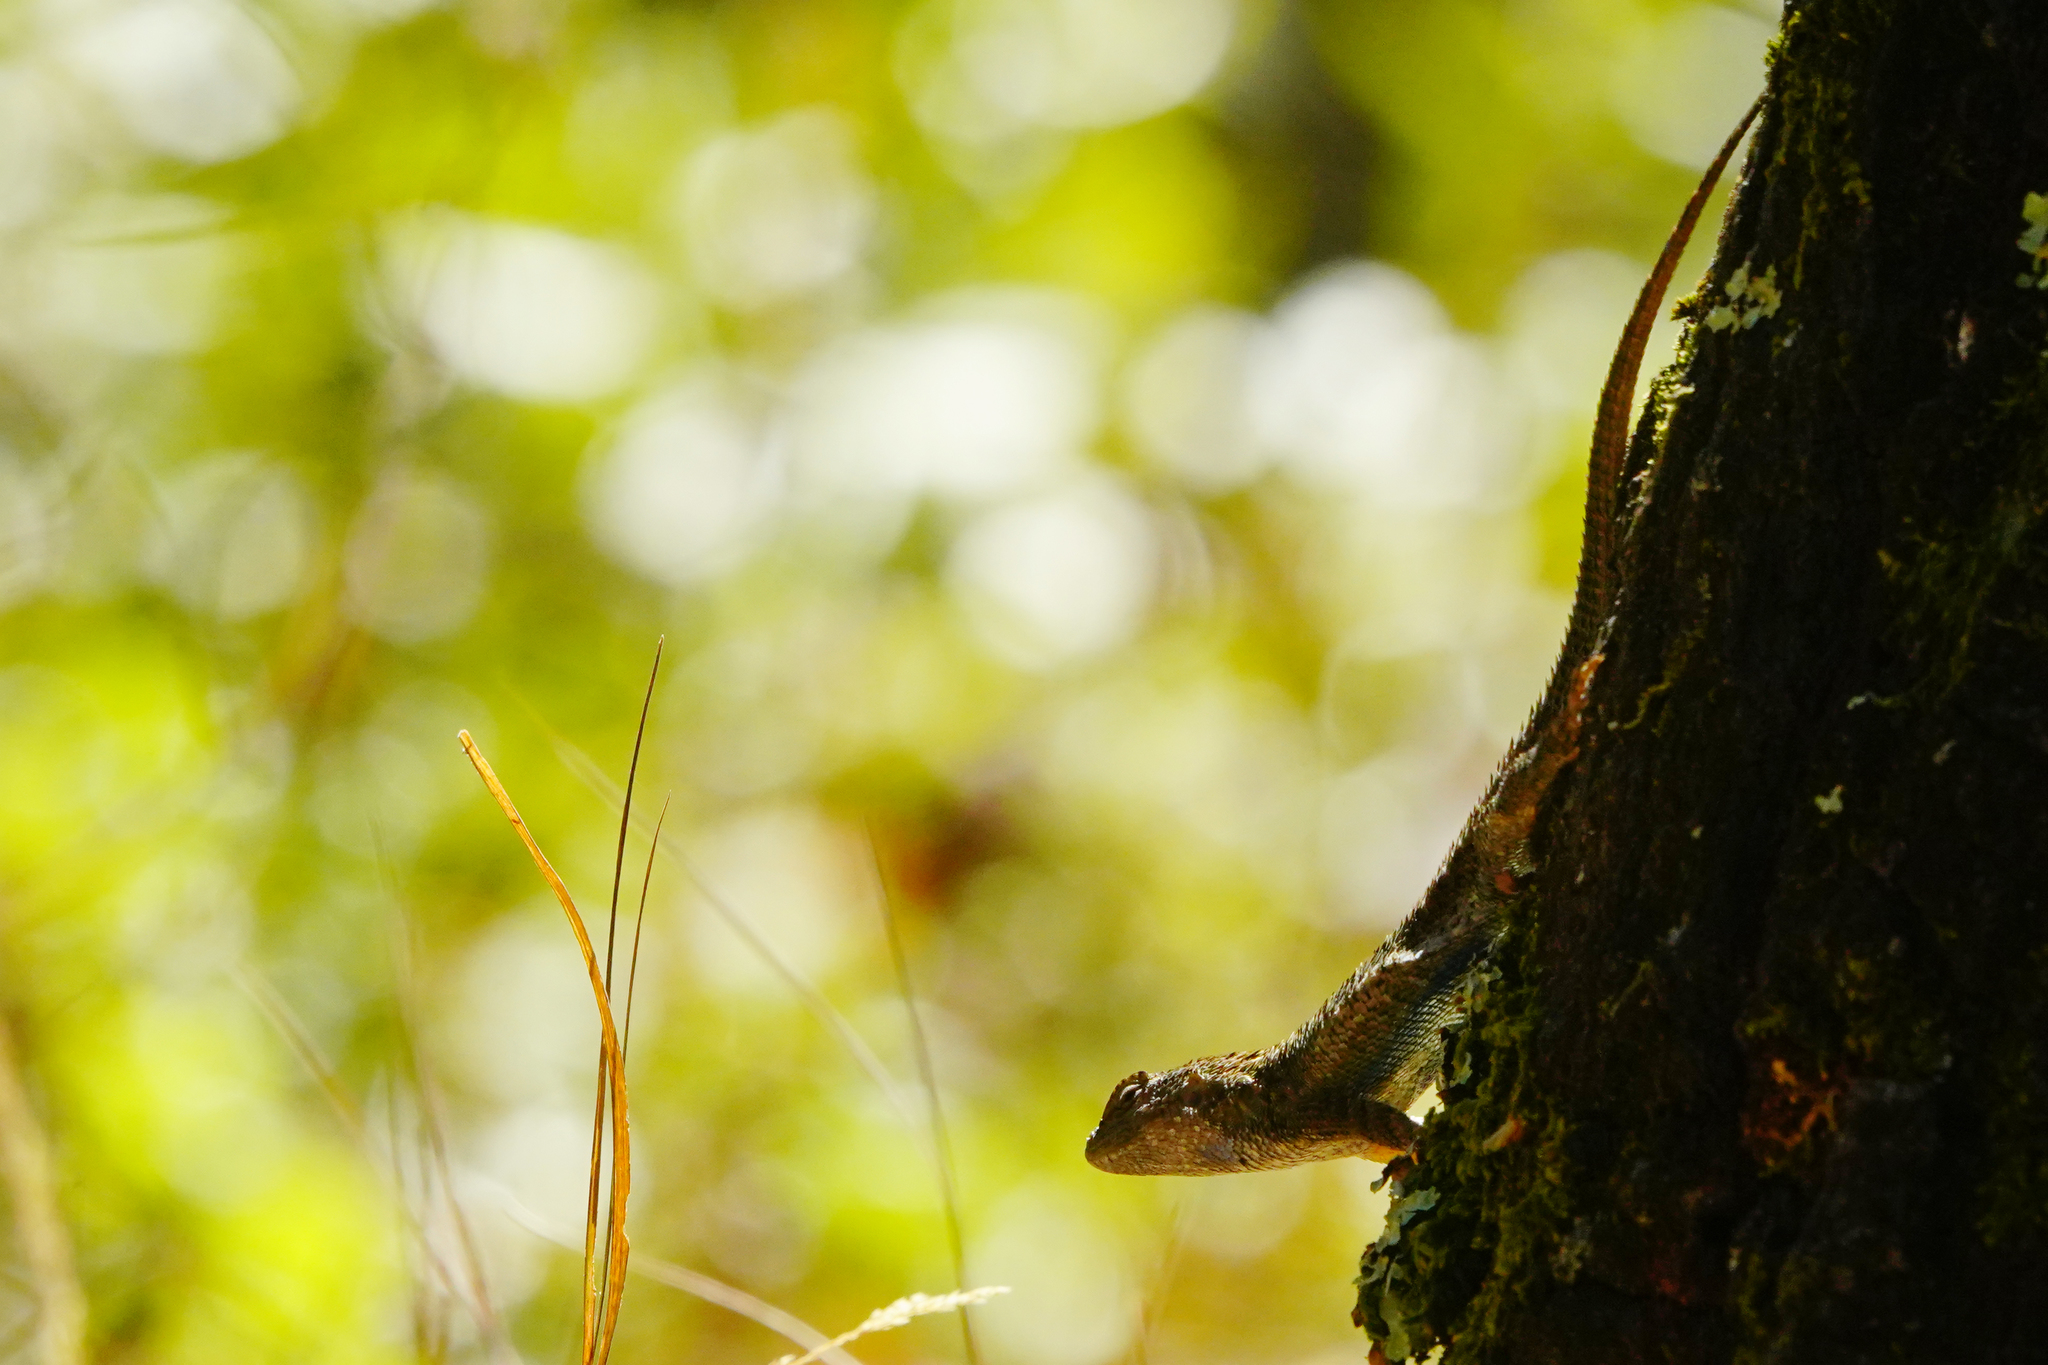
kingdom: Animalia
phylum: Chordata
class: Squamata
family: Phrynosomatidae
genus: Sceloporus
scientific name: Sceloporus occidentalis
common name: Western fence lizard
